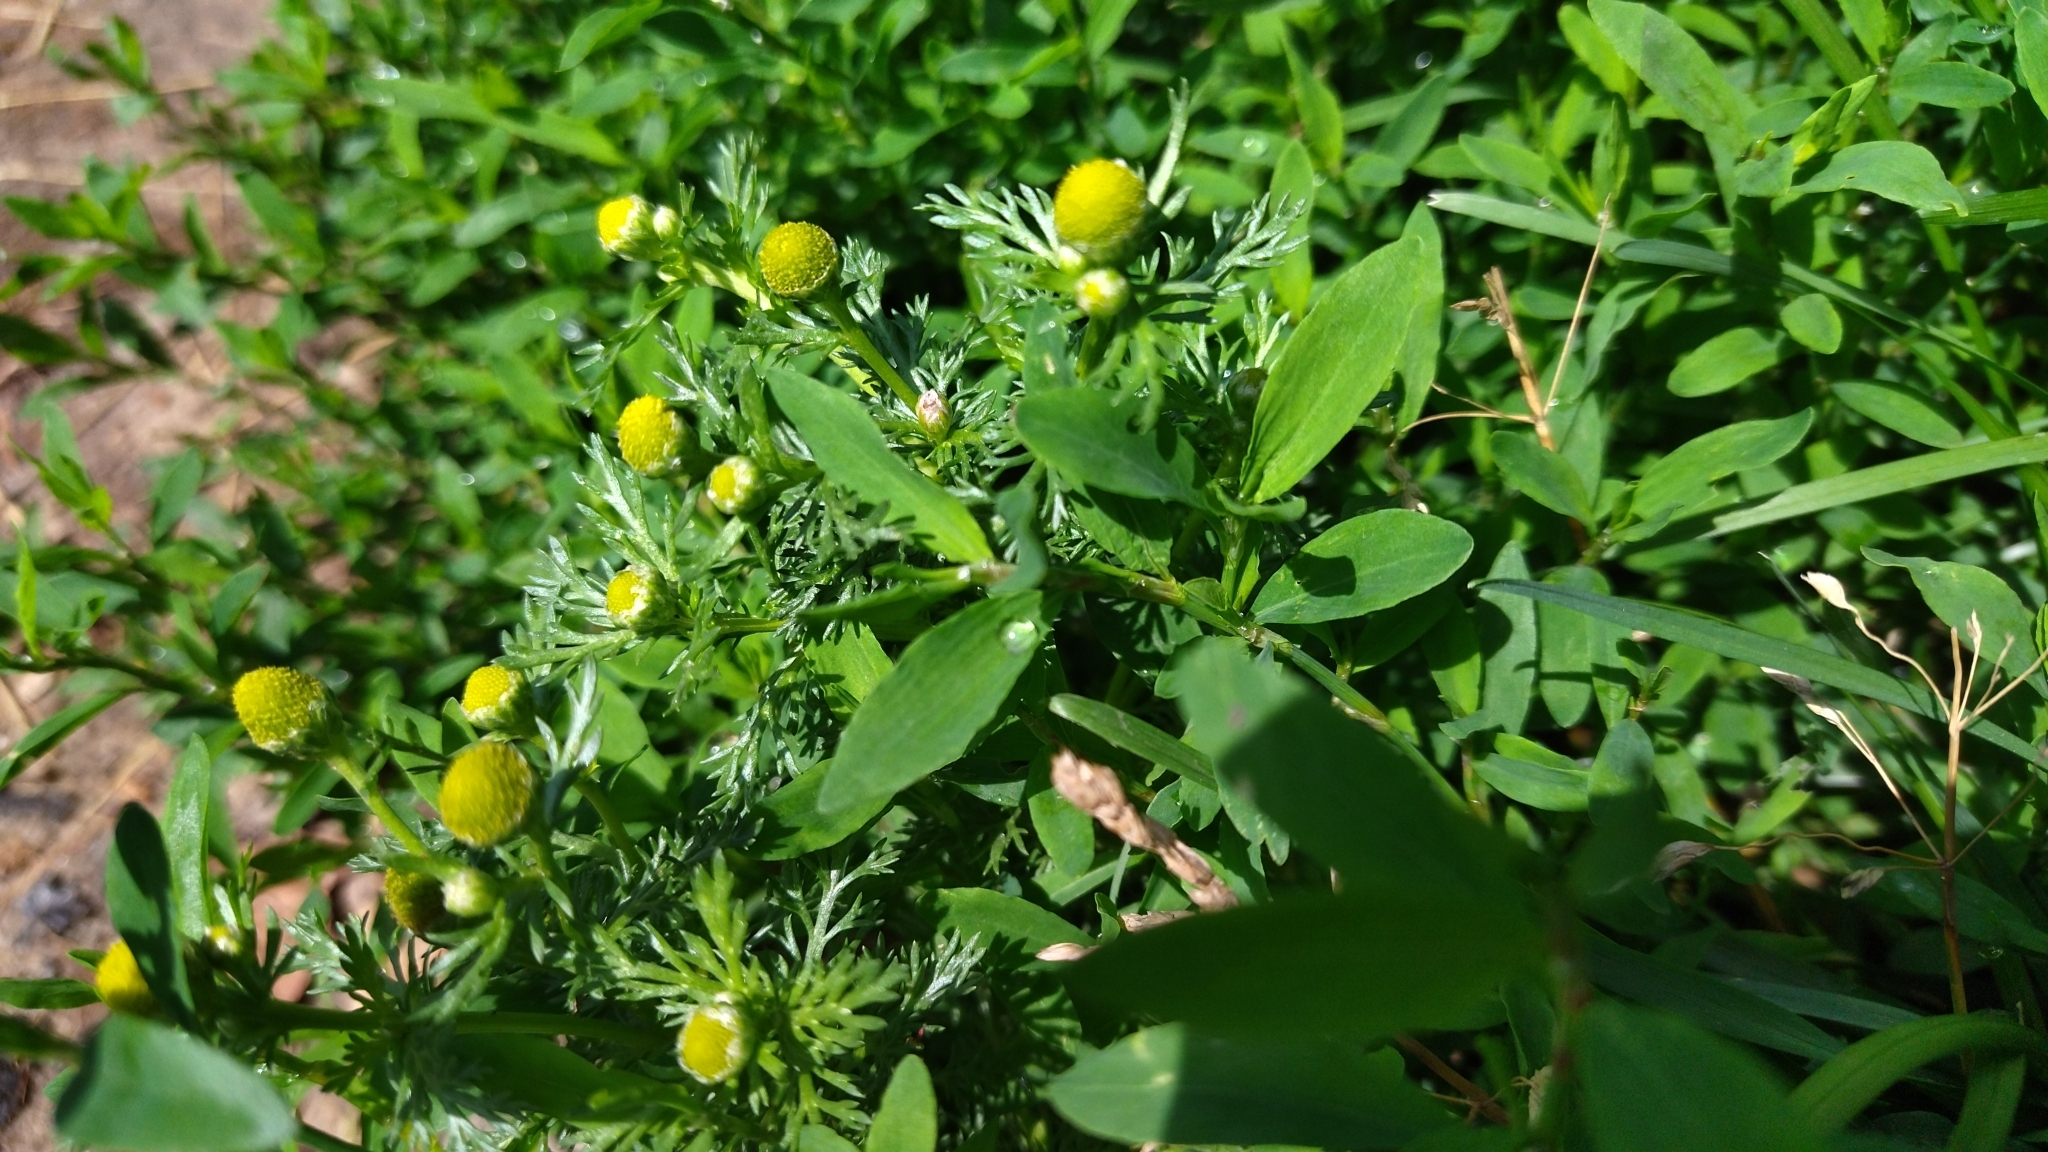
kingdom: Plantae
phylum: Tracheophyta
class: Magnoliopsida
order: Asterales
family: Asteraceae
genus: Matricaria
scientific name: Matricaria discoidea
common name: Disc mayweed
